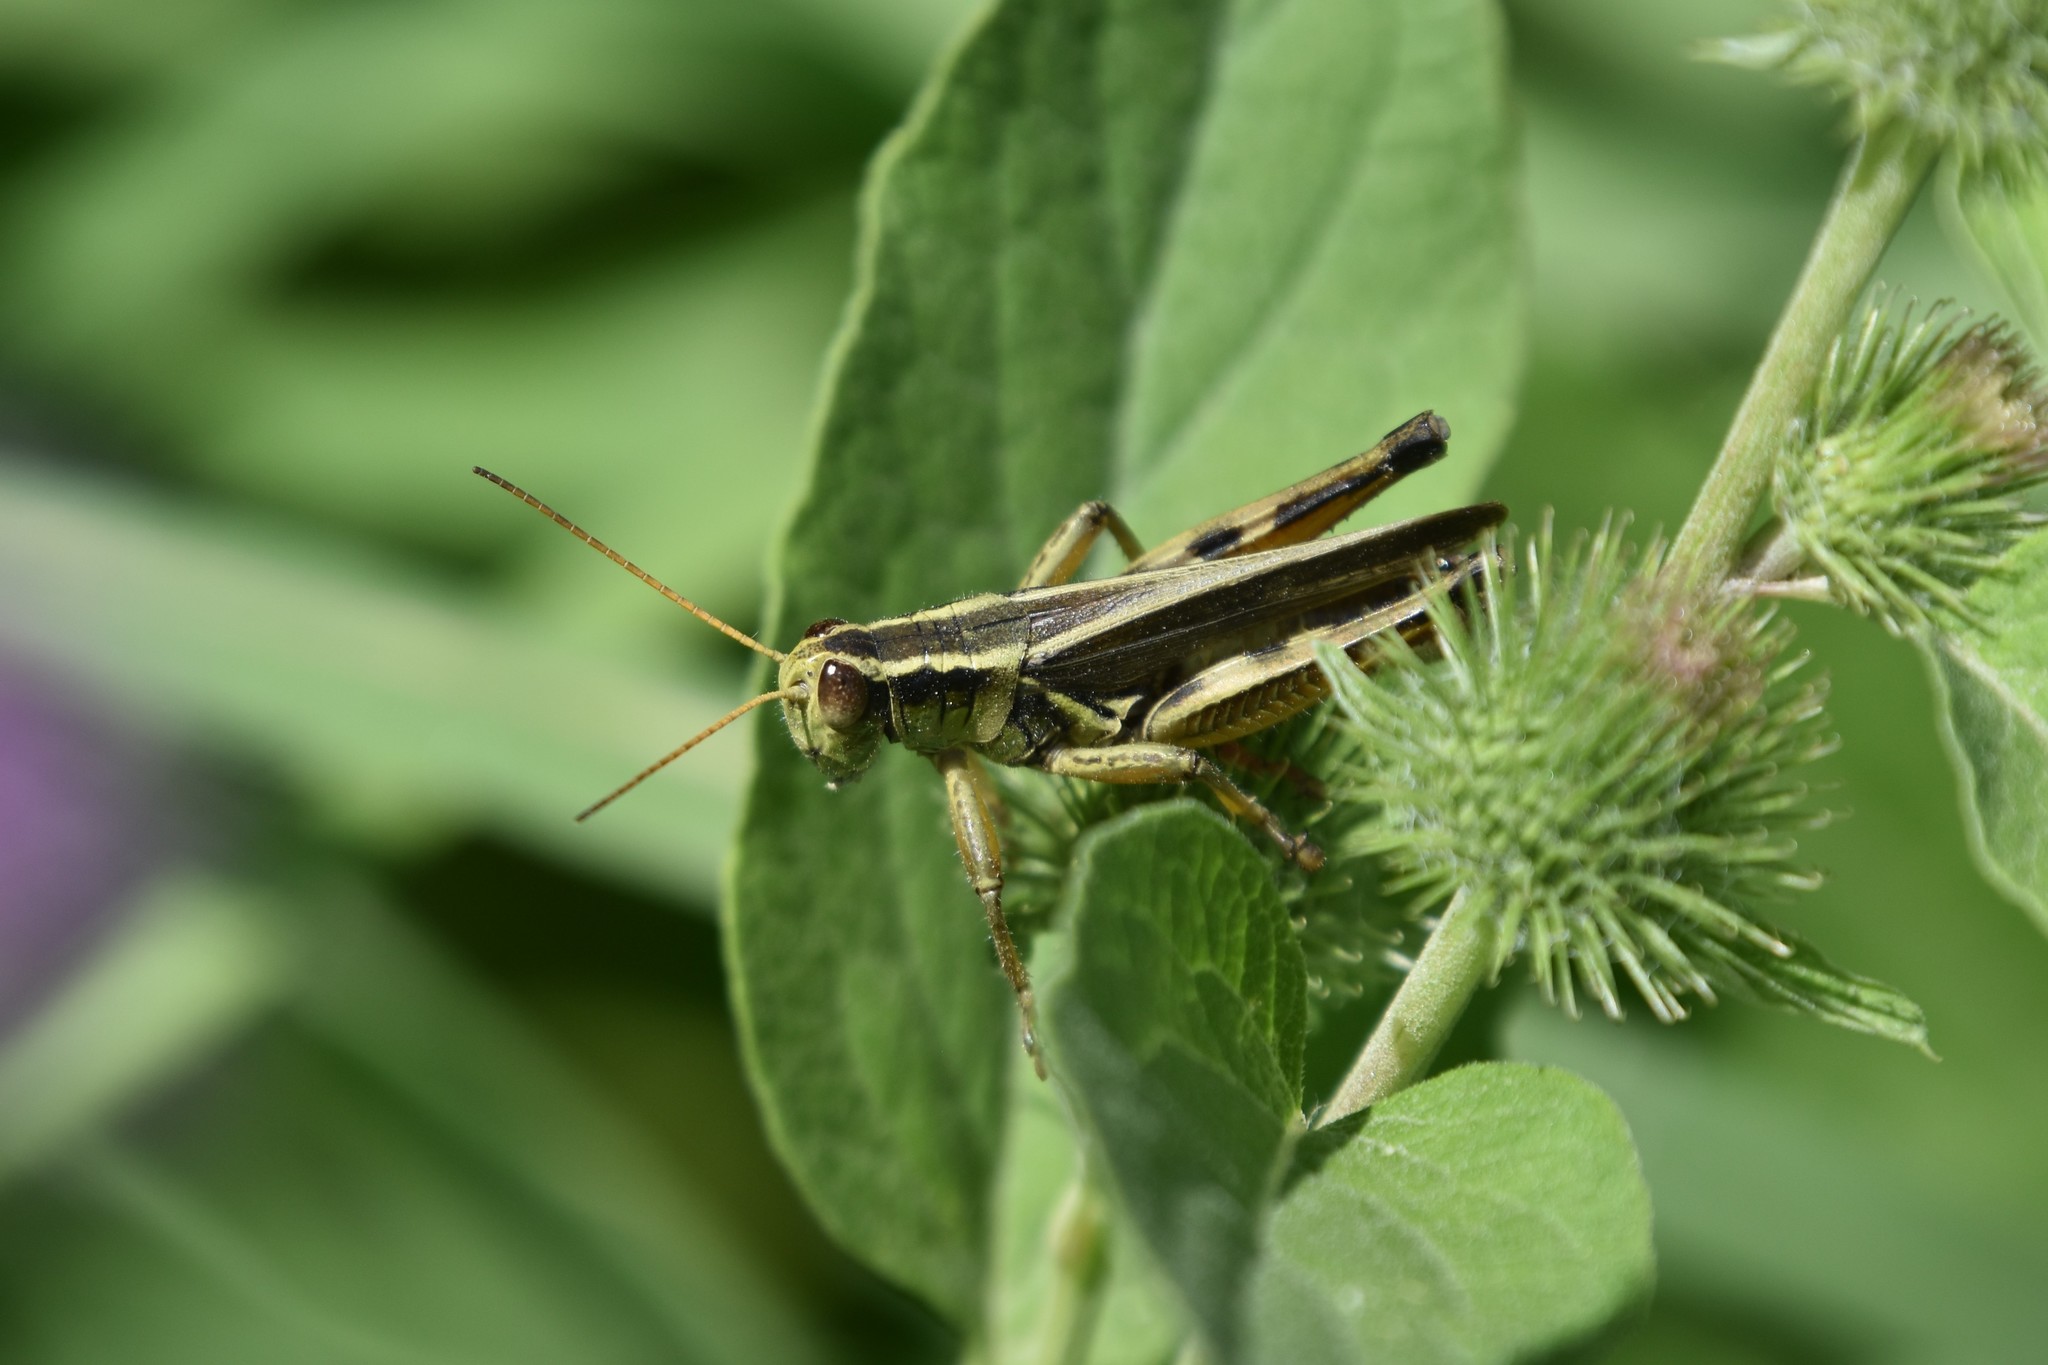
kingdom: Animalia
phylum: Arthropoda
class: Insecta
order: Orthoptera
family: Acrididae
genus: Melanoplus
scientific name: Melanoplus bivittatus
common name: Two-striped grasshopper
